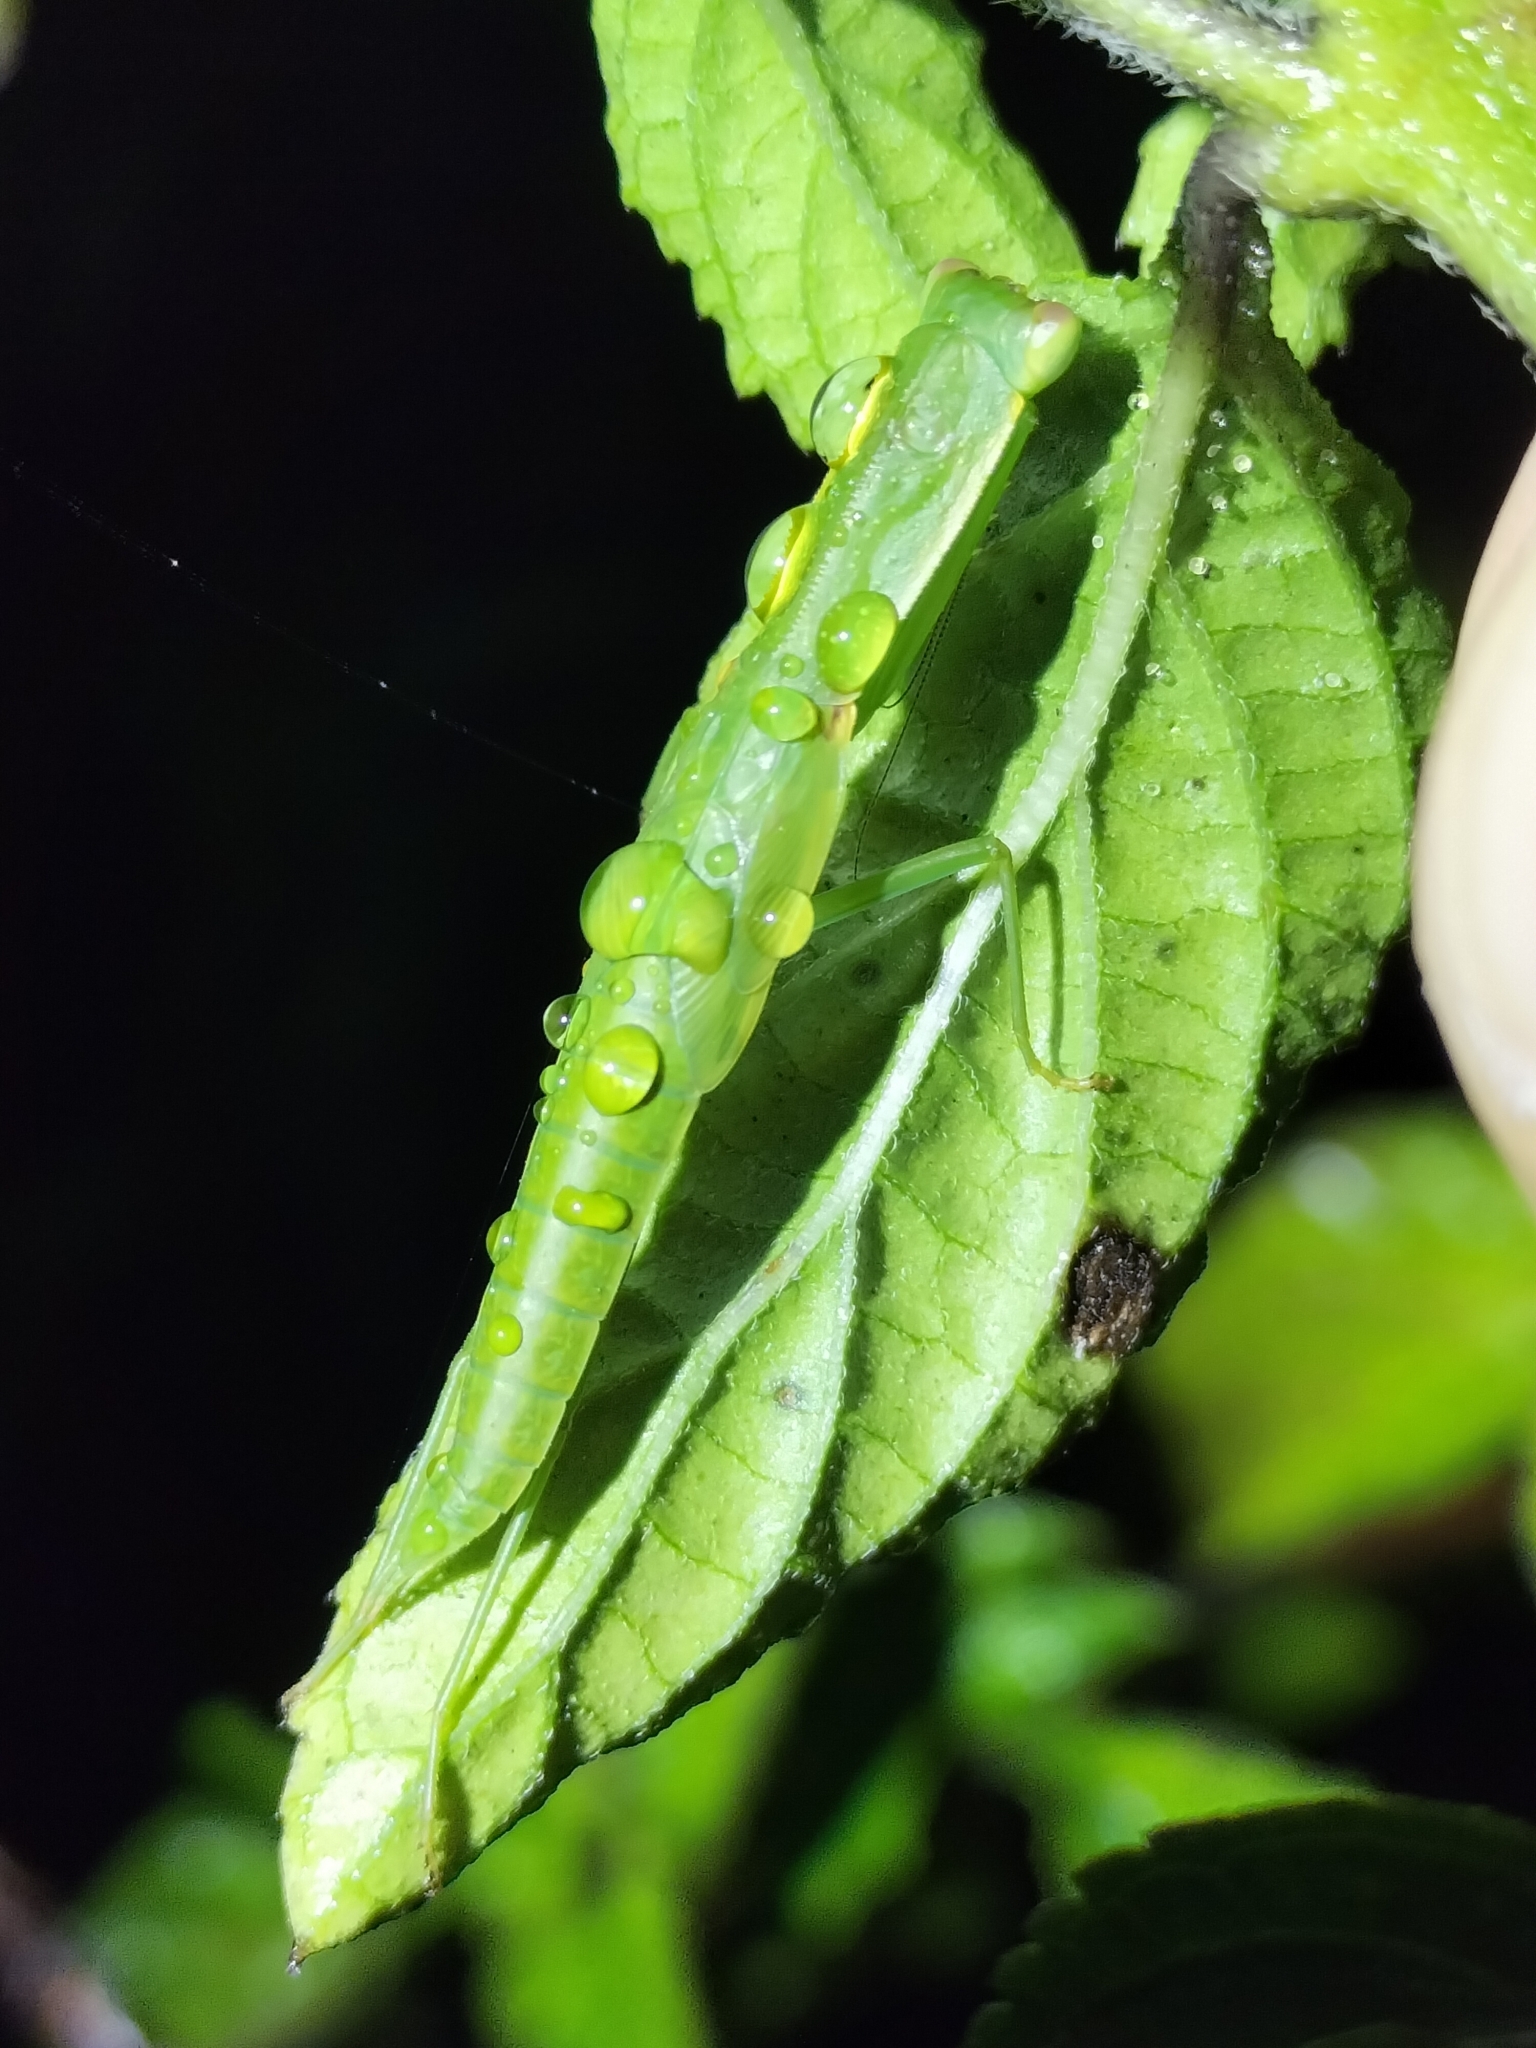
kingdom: Animalia
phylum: Arthropoda
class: Insecta
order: Mantodea
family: Mantidae
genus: Orthodera
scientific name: Orthodera ministralis
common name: Mantis
